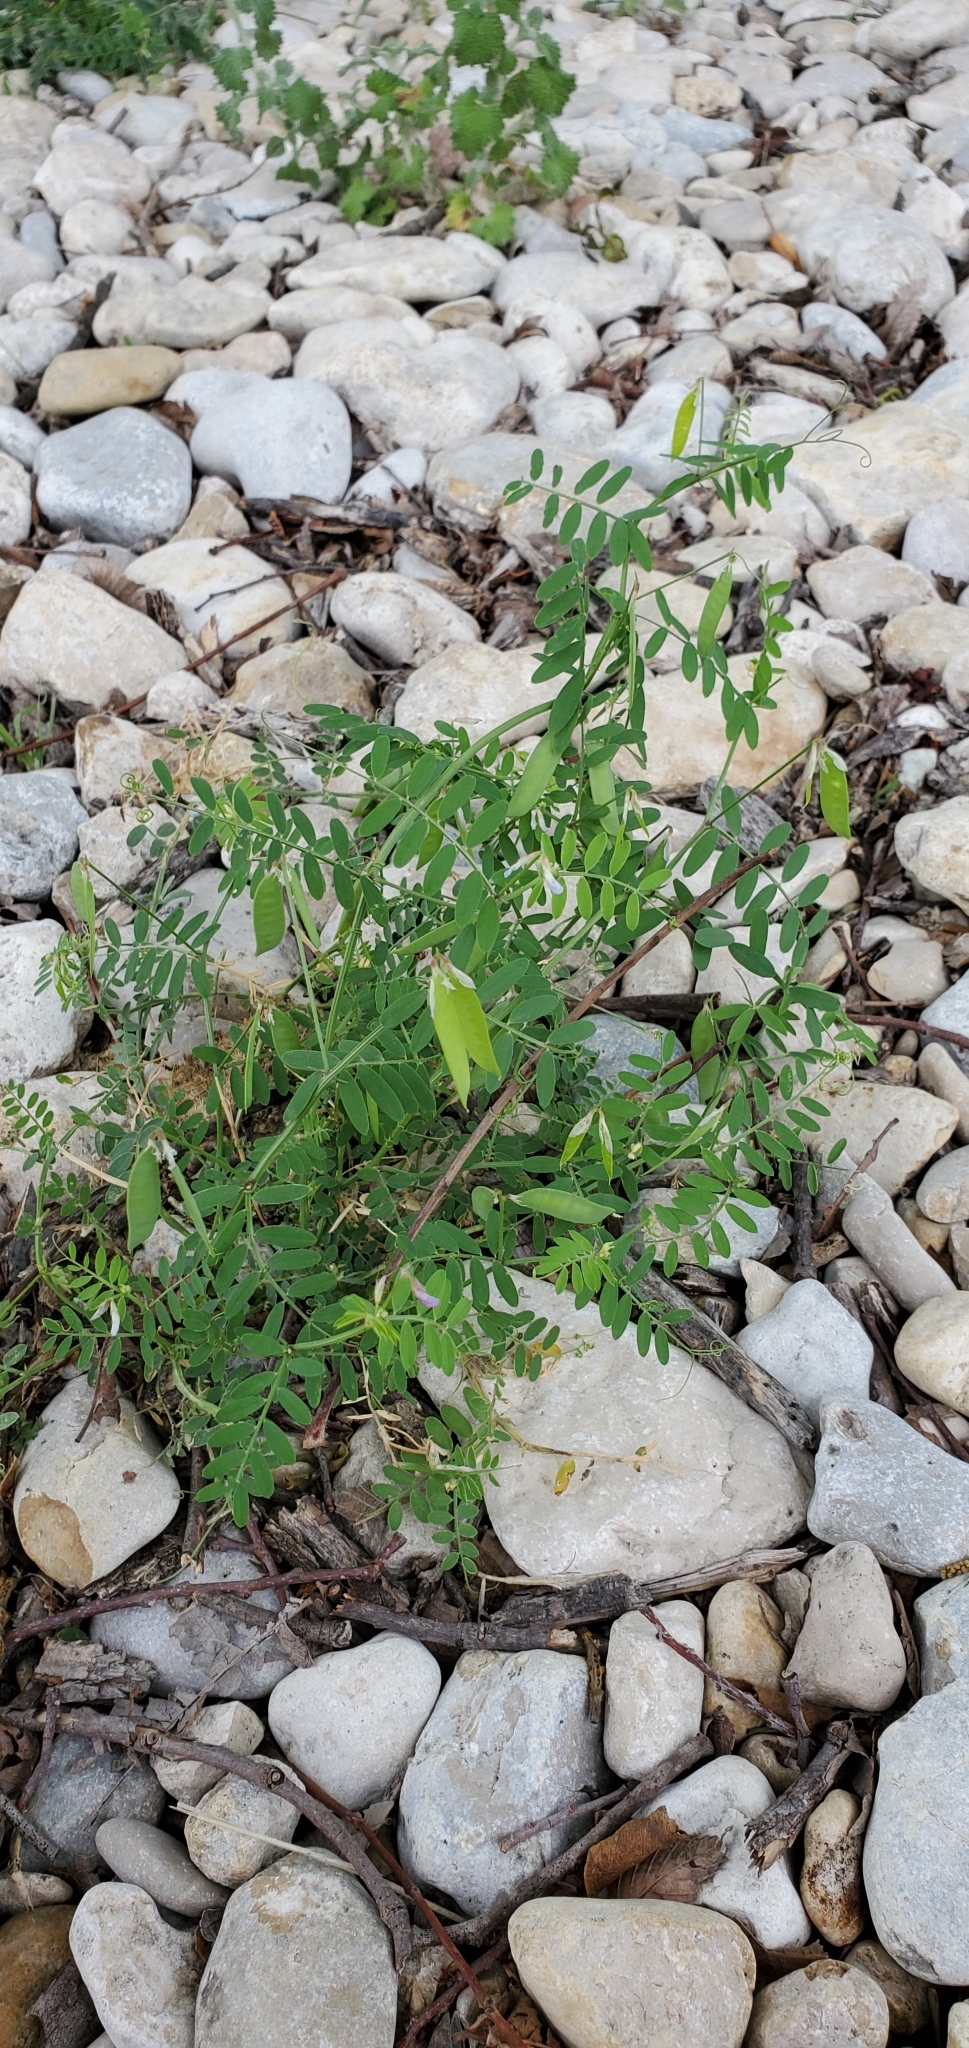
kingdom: Plantae
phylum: Tracheophyta
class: Magnoliopsida
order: Fabales
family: Fabaceae
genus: Vicia
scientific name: Vicia ludoviciana
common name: Louisiana vetch
